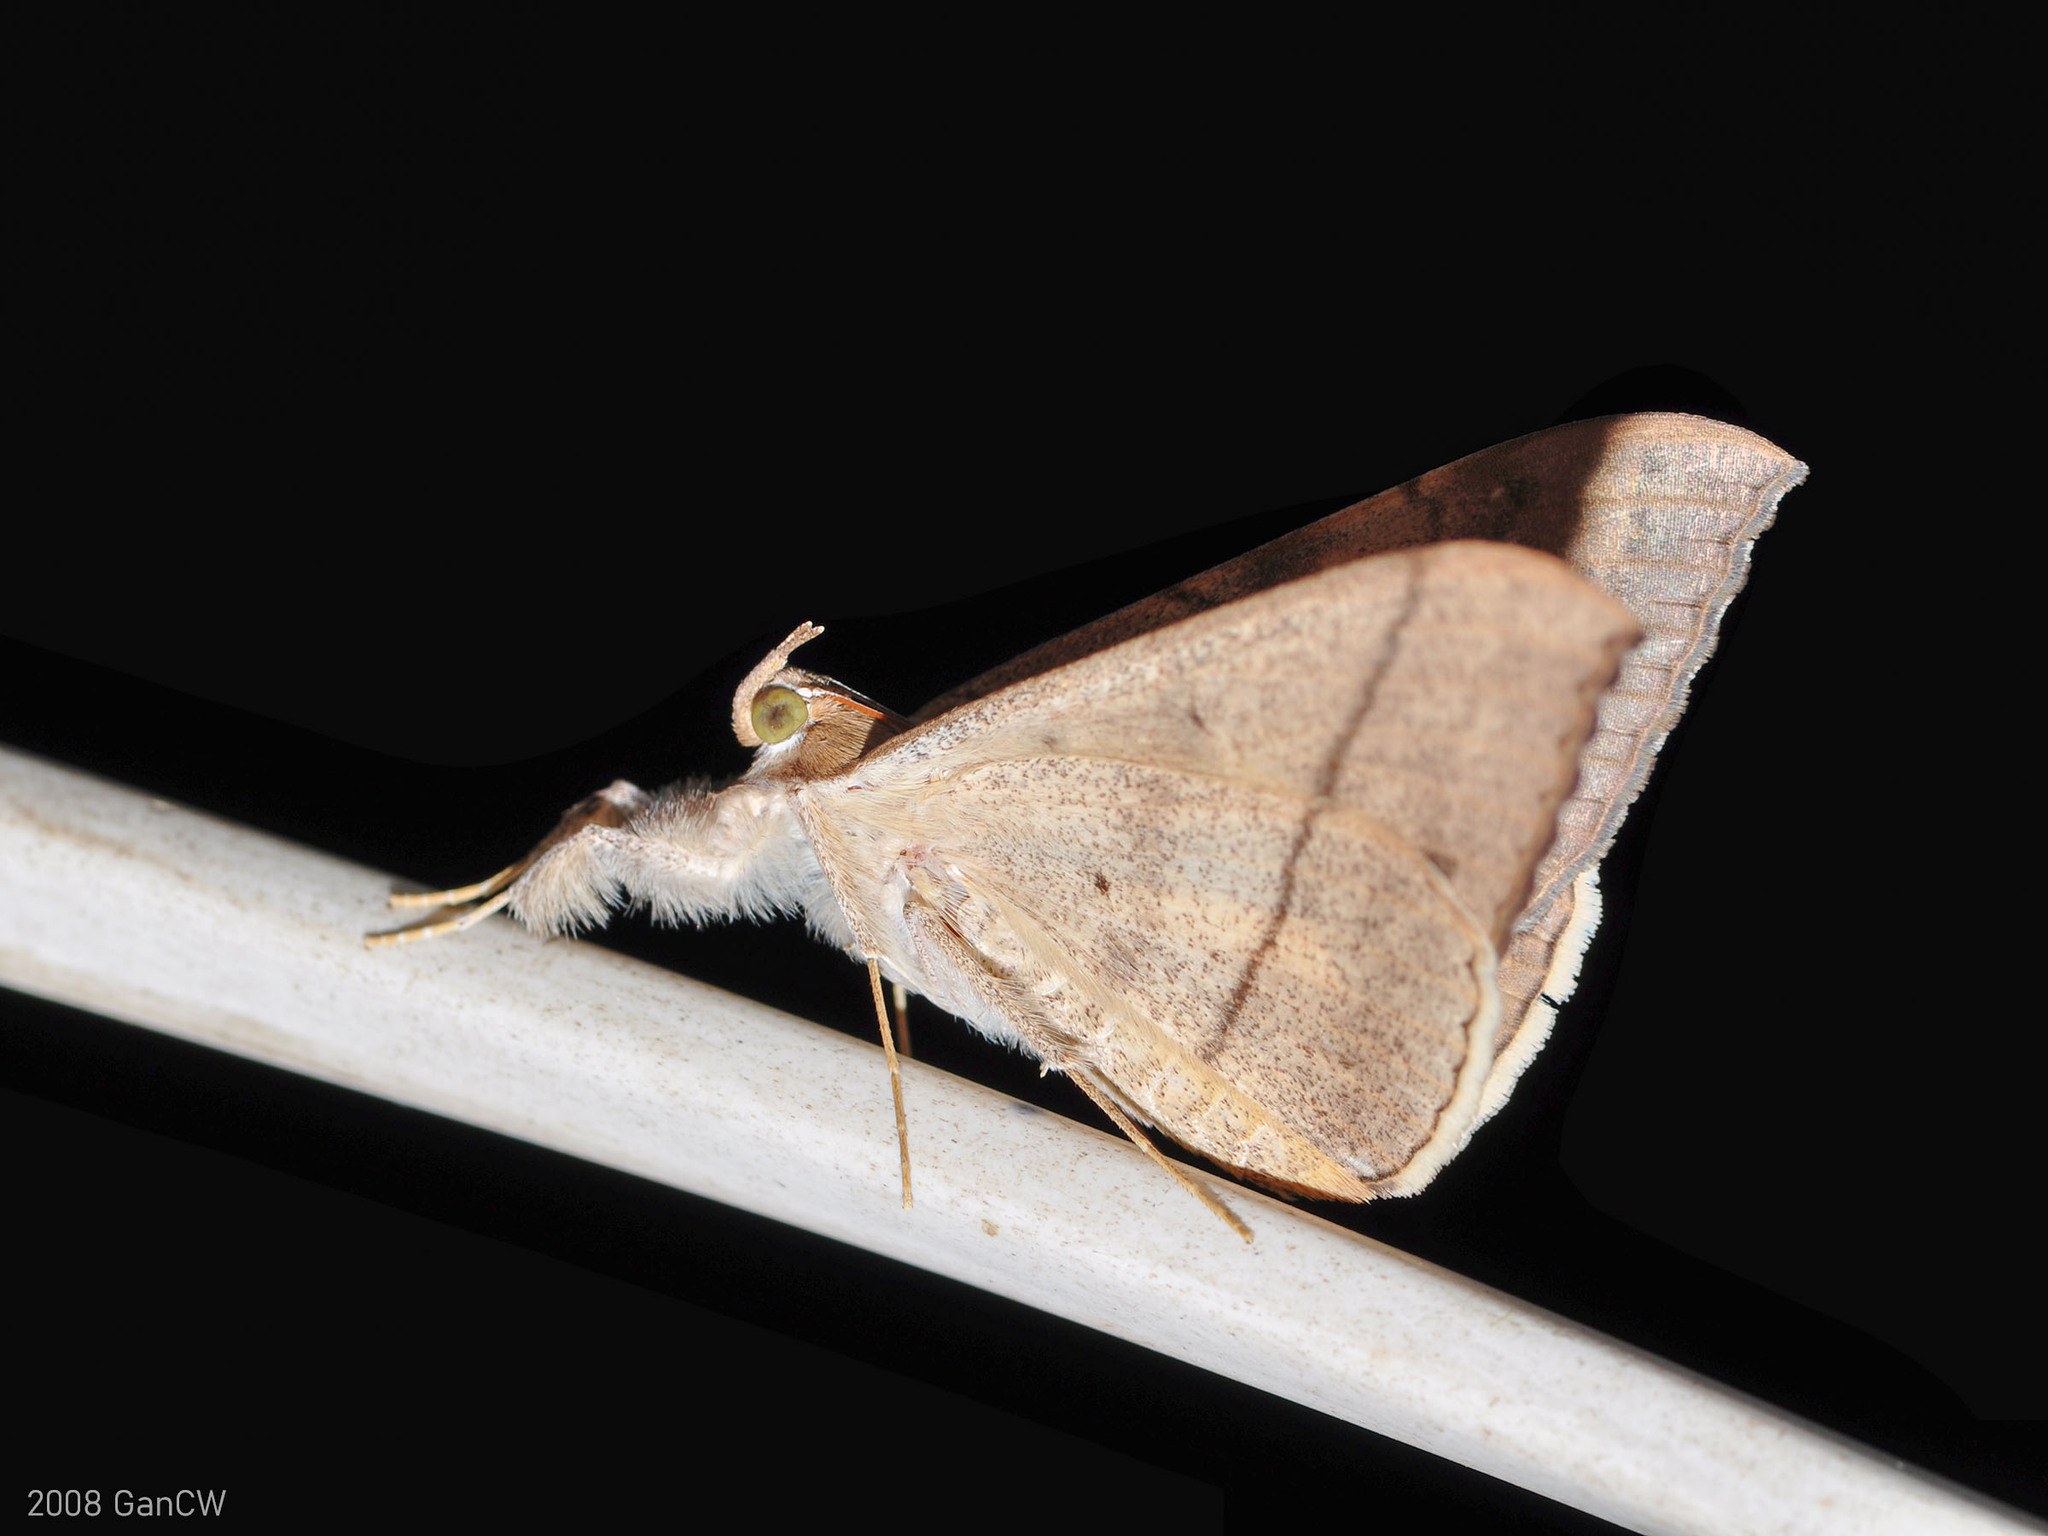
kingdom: Animalia
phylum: Arthropoda
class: Insecta
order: Lepidoptera
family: Erebidae
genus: Oxyodes
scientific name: Oxyodes scrobiculata
